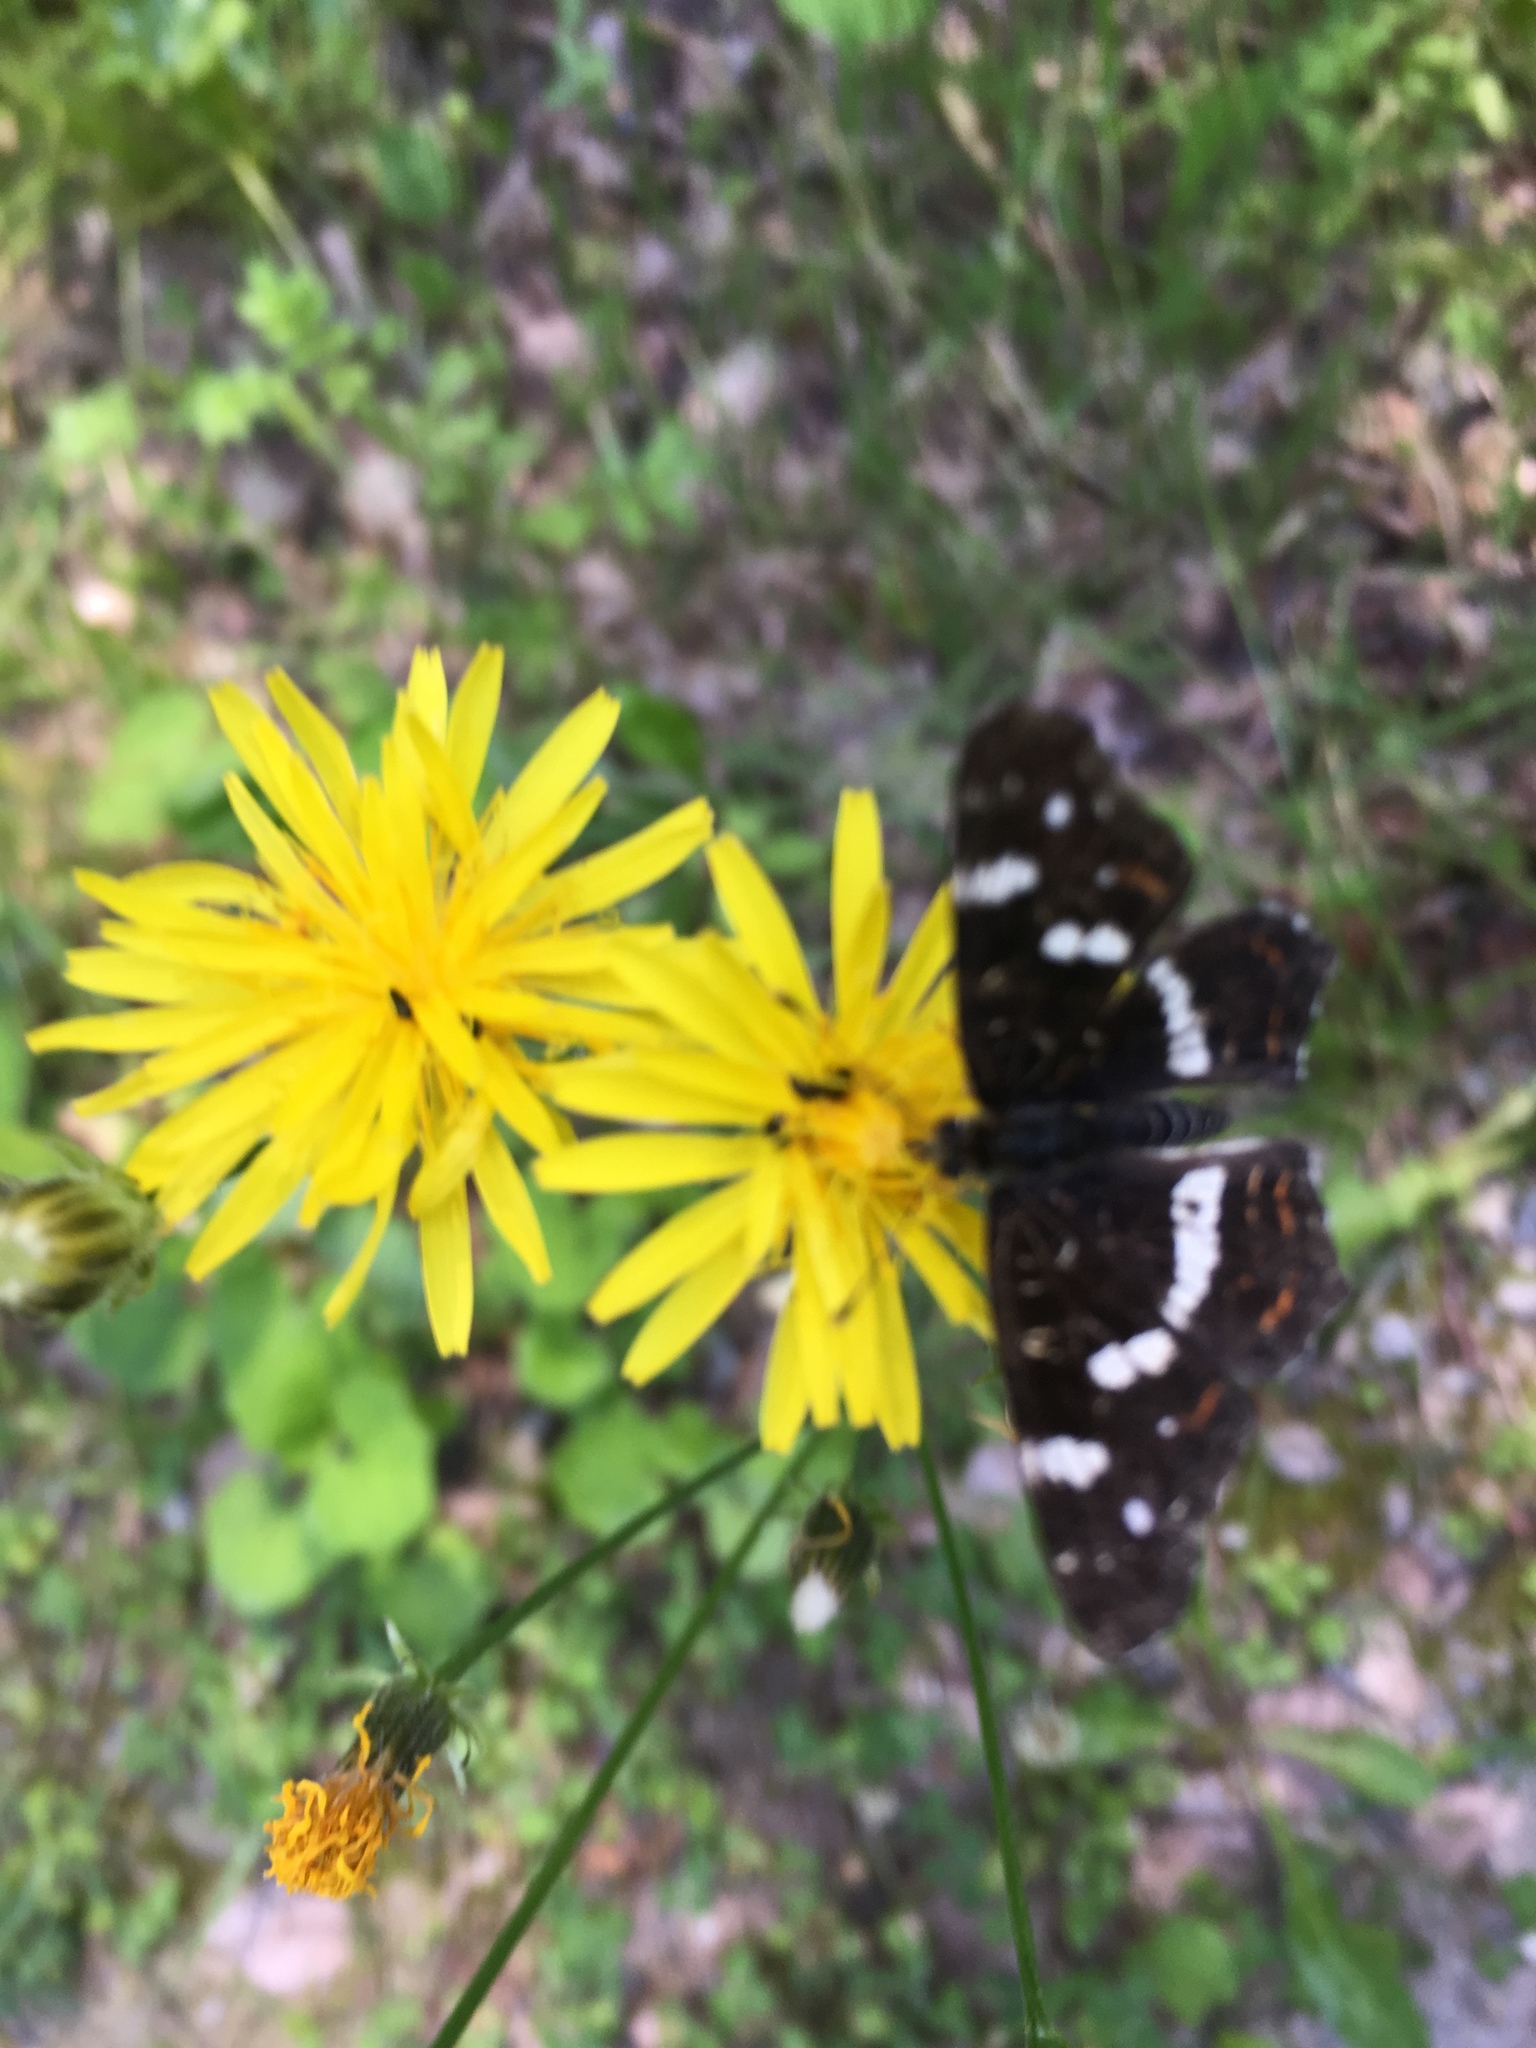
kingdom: Animalia
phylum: Arthropoda
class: Insecta
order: Lepidoptera
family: Nymphalidae
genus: Araschnia
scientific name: Araschnia levana
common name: Map butterfly
